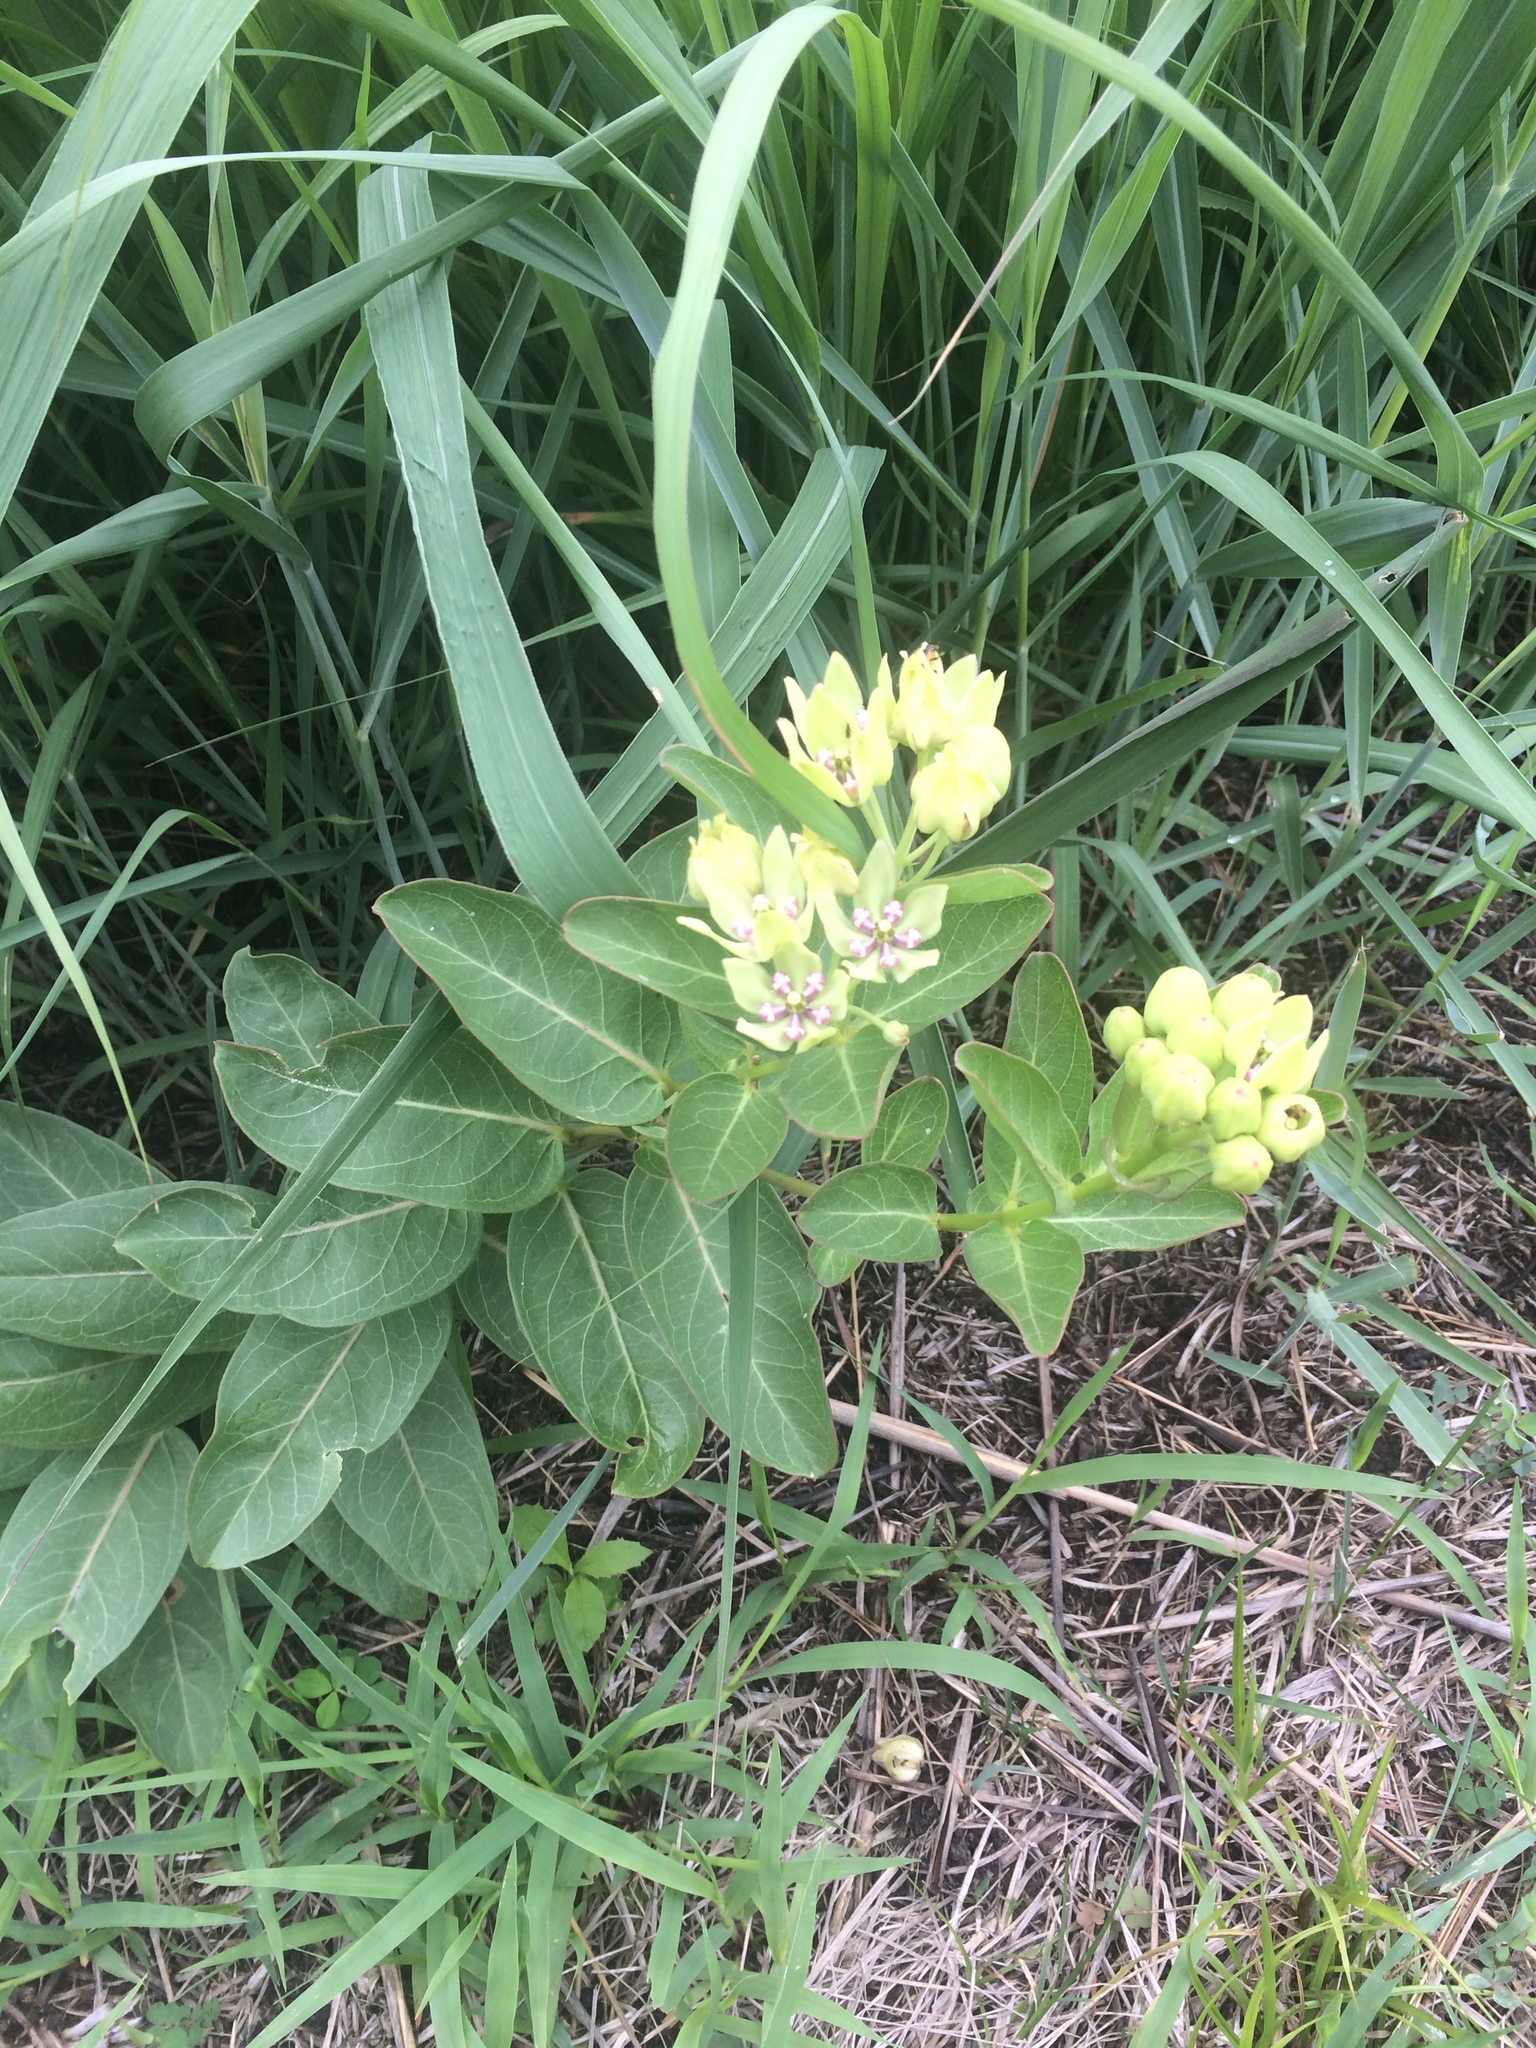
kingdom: Plantae
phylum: Tracheophyta
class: Magnoliopsida
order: Gentianales
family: Apocynaceae
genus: Asclepias
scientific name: Asclepias viridis
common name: Antelope-horns
